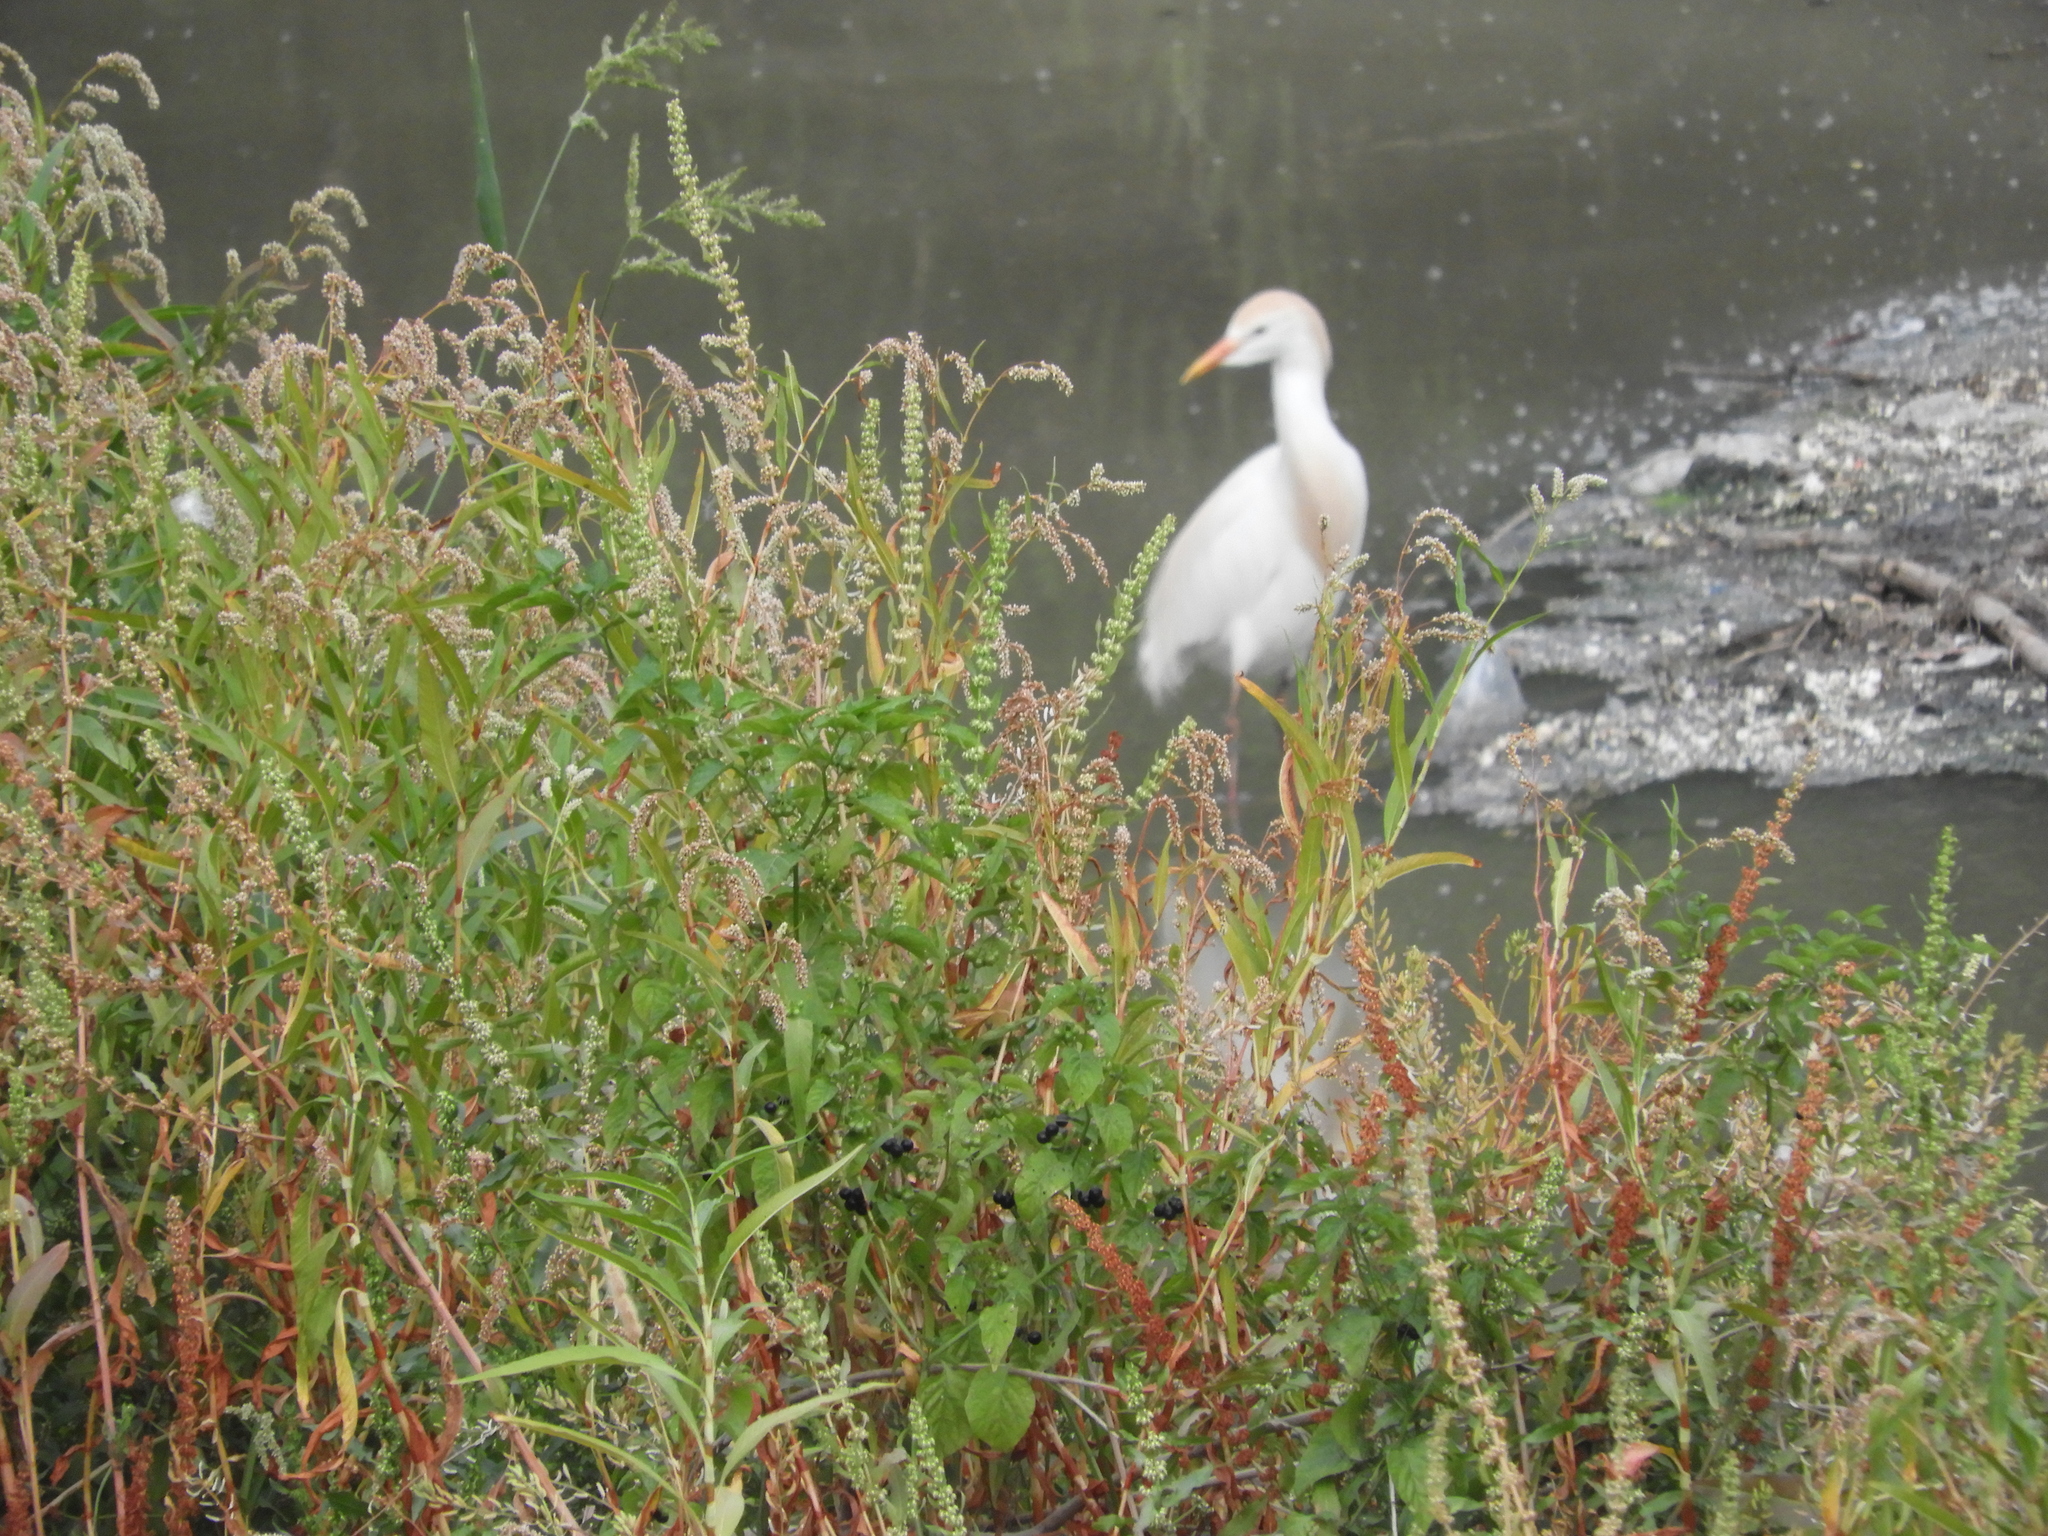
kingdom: Animalia
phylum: Chordata
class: Aves
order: Pelecaniformes
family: Ardeidae
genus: Bubulcus
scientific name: Bubulcus ibis
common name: Cattle egret
